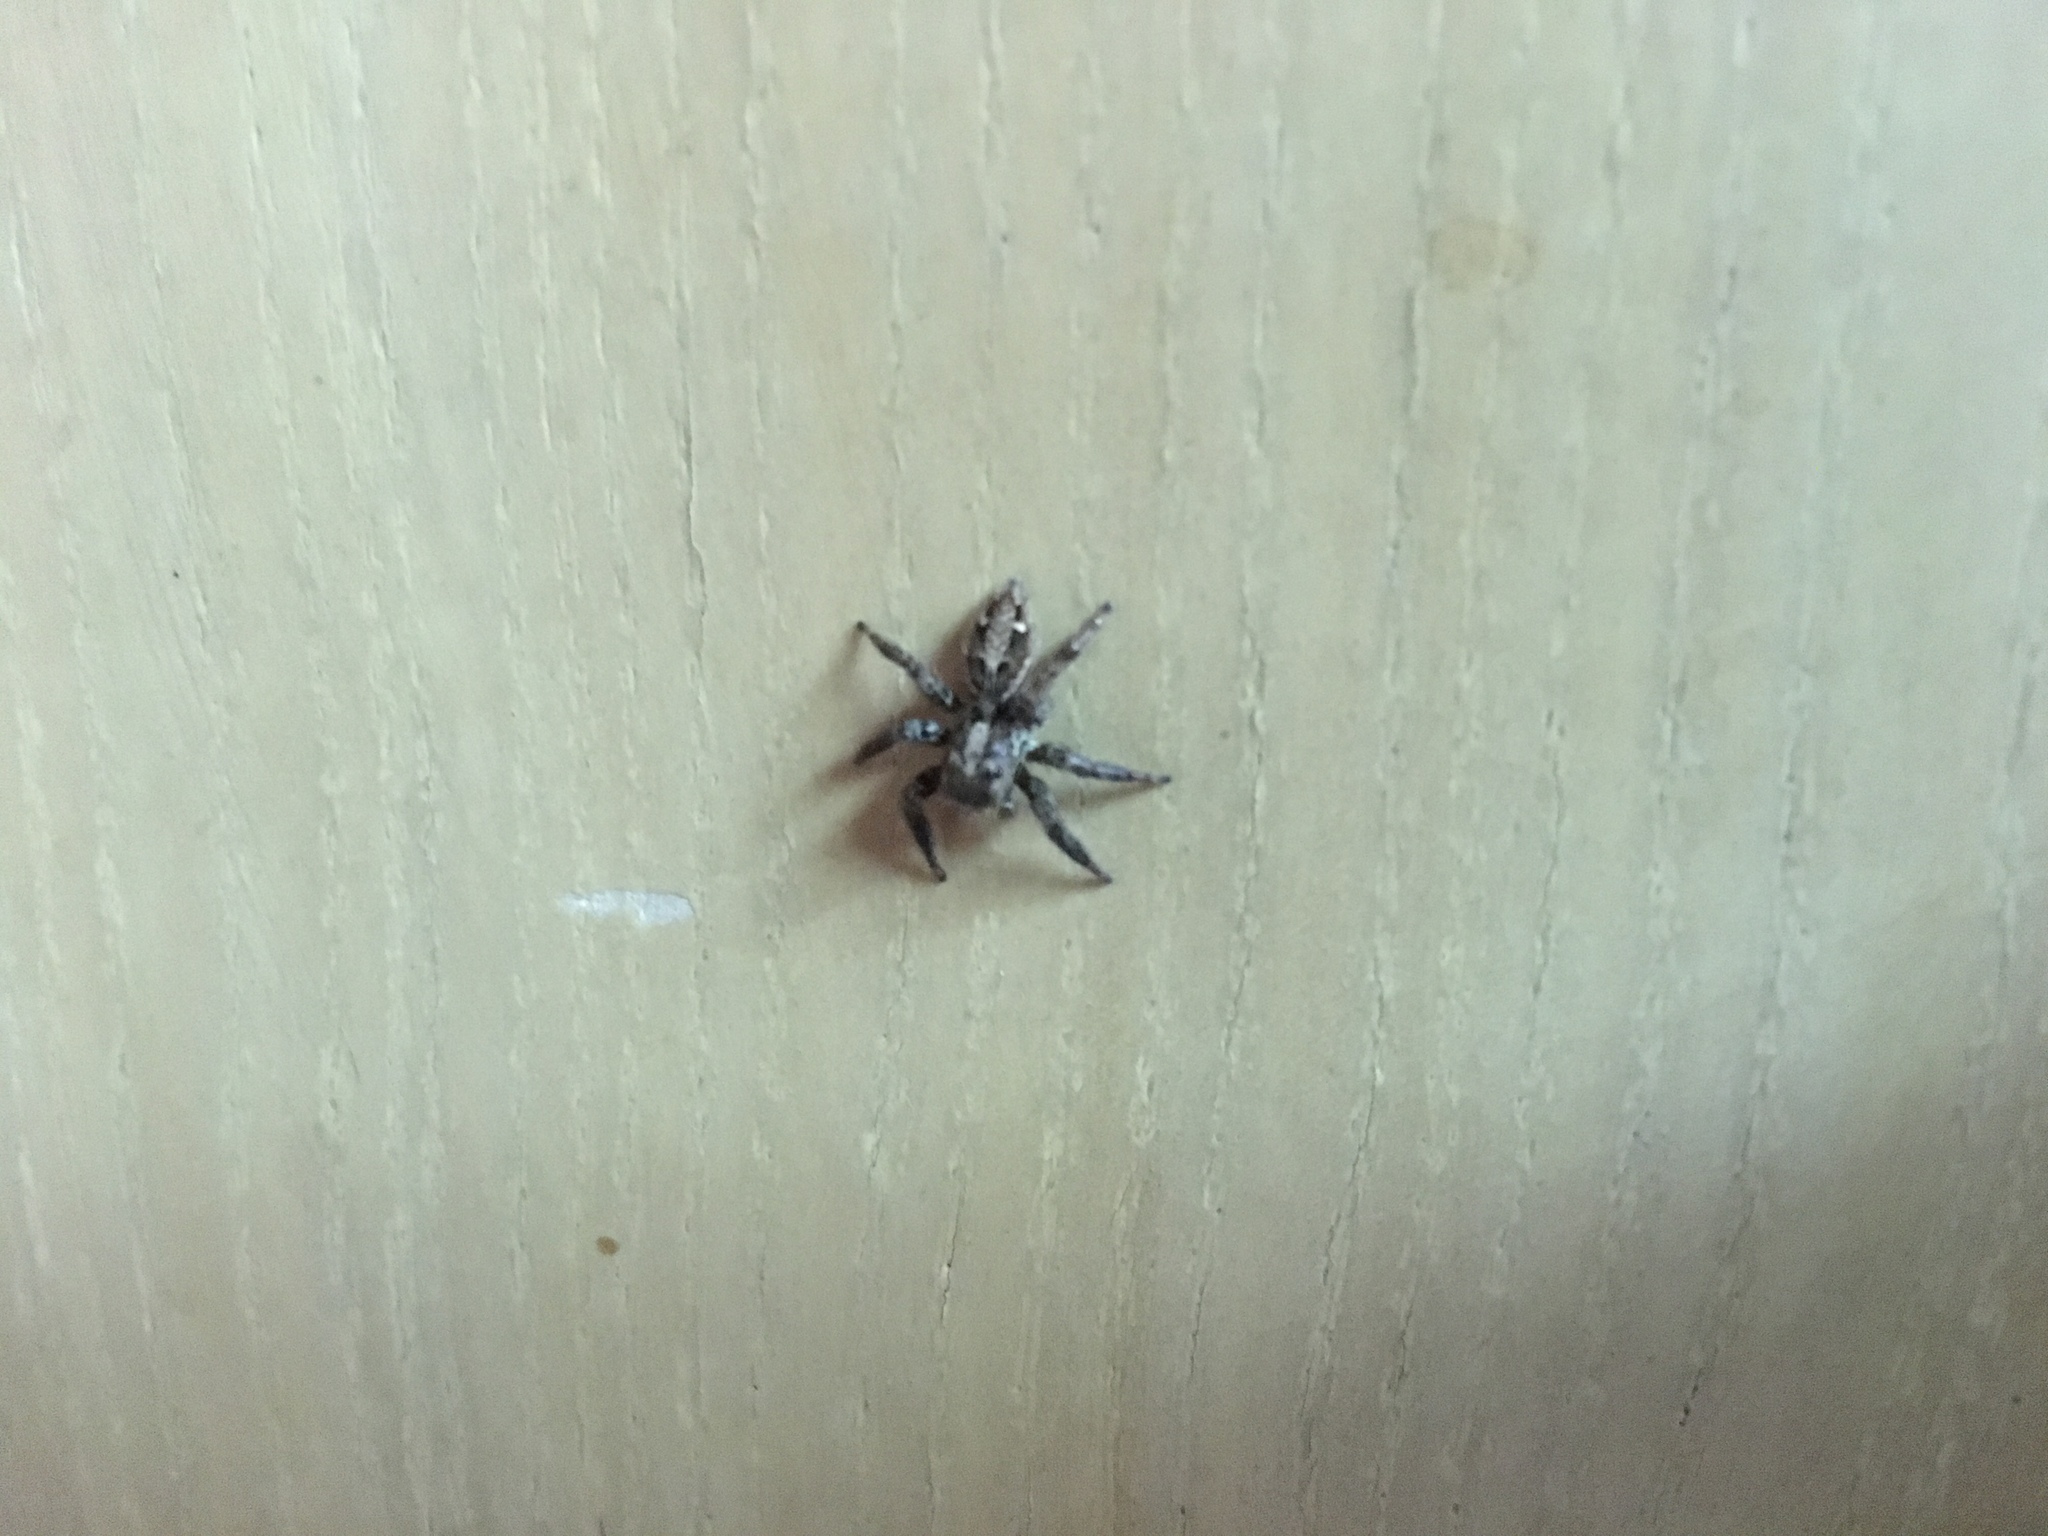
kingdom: Animalia
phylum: Arthropoda
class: Arachnida
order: Araneae
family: Salticidae
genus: Plexippus
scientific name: Plexippus paykulli
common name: Pantropical jumper
